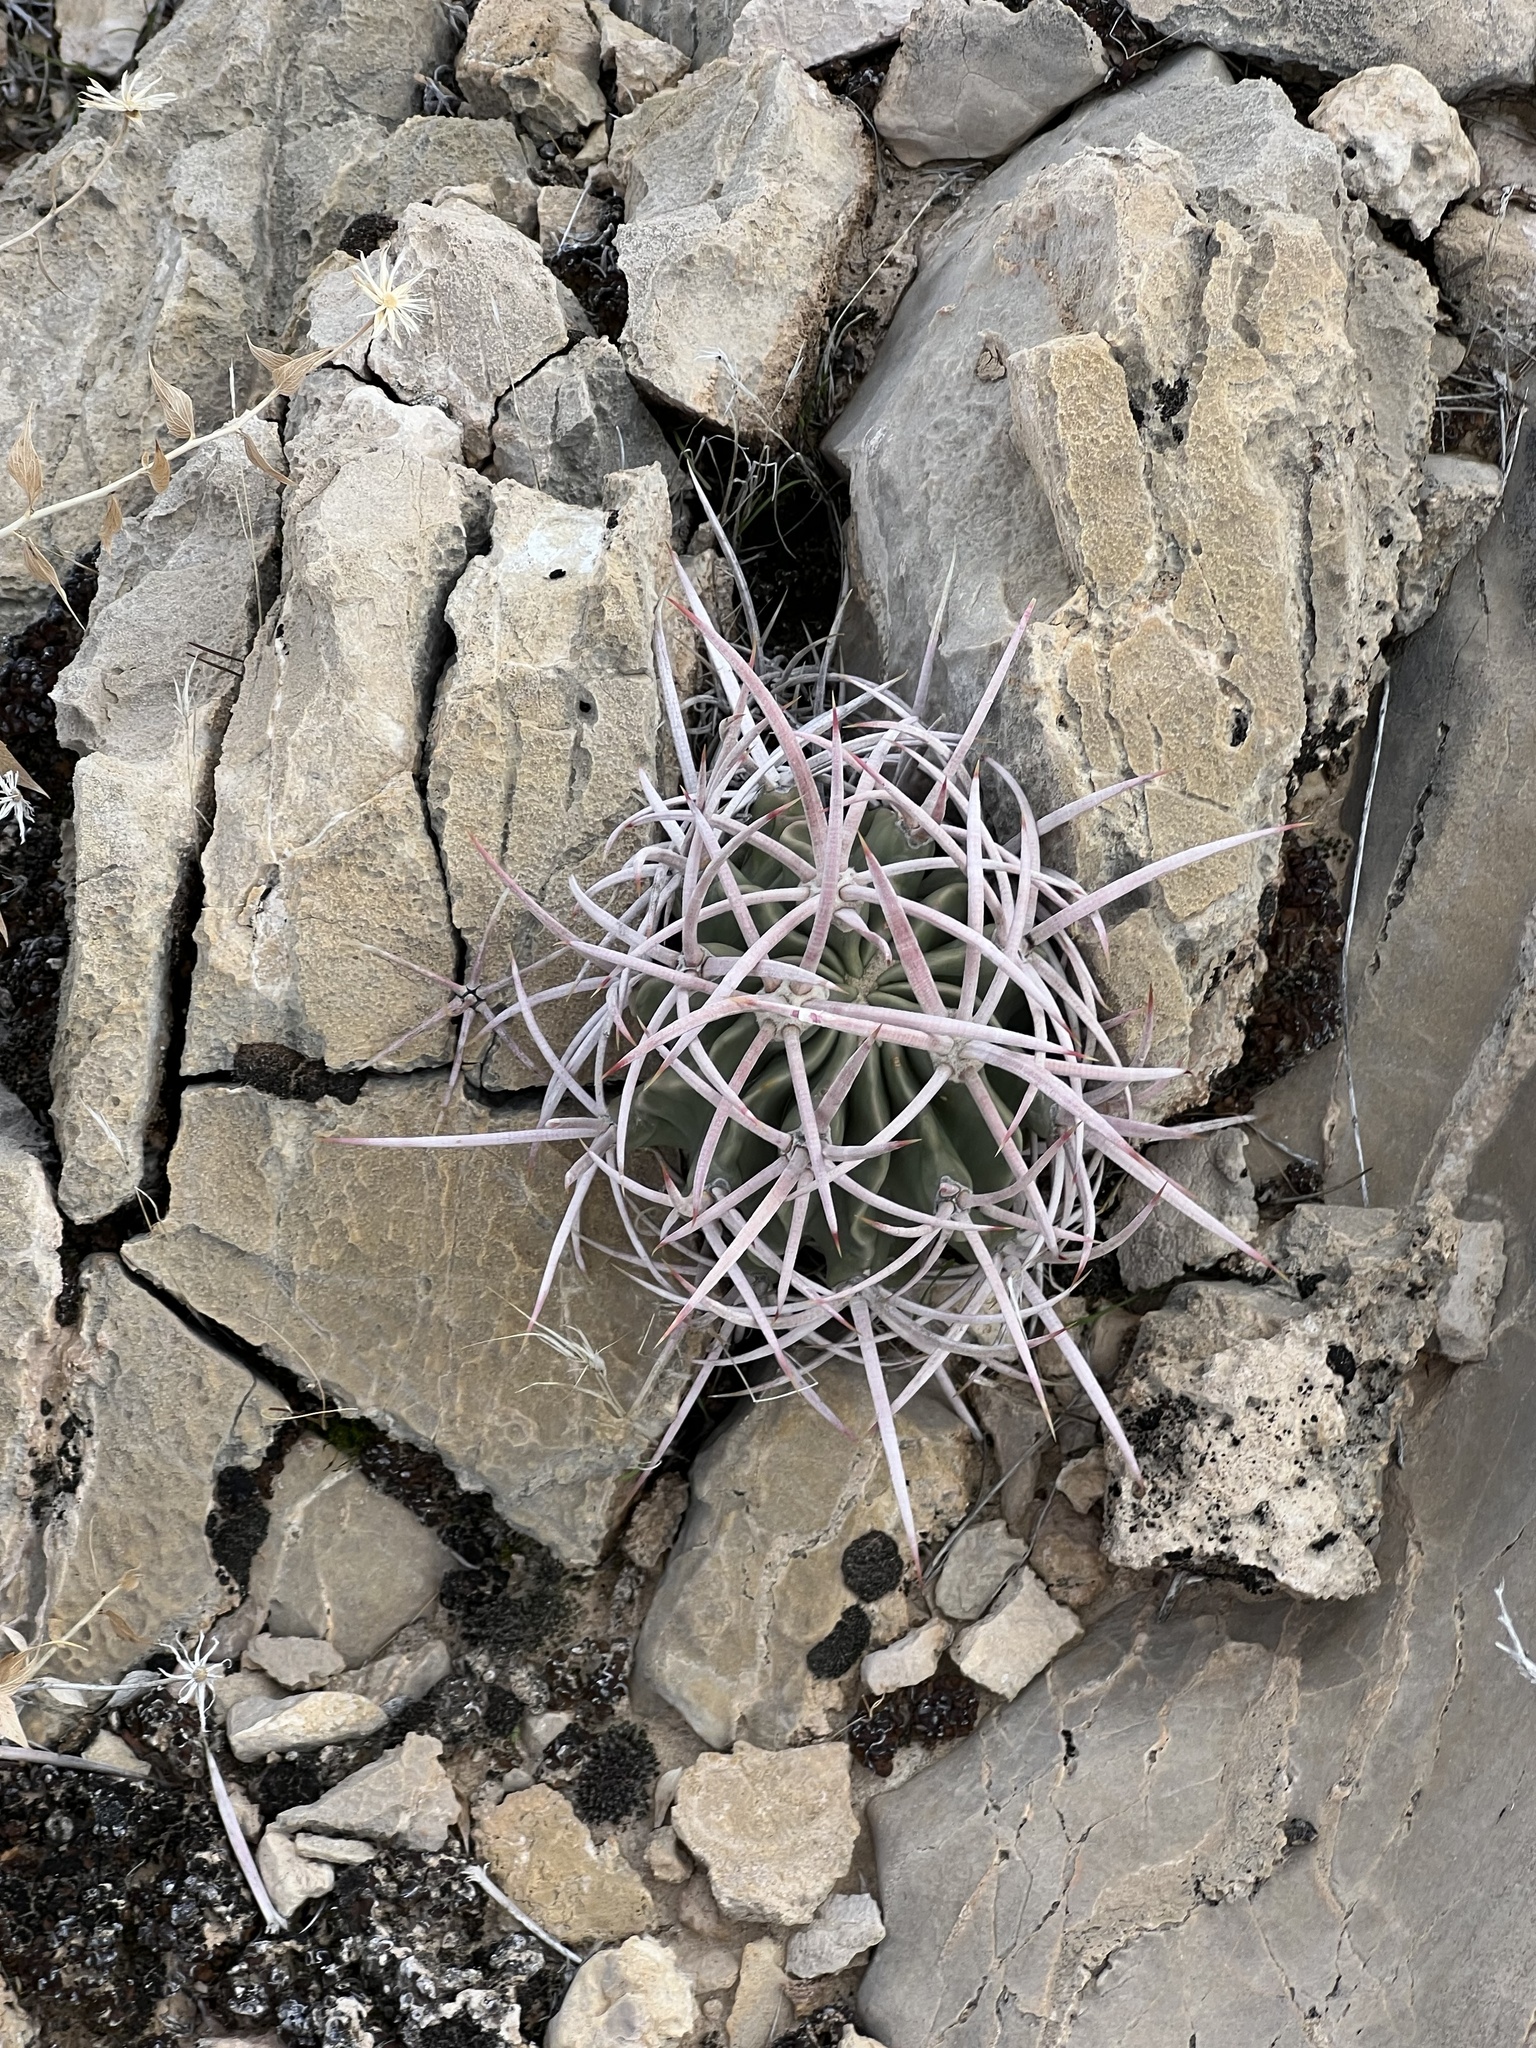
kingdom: Plantae
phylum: Tracheophyta
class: Magnoliopsida
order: Caryophyllales
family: Cactaceae
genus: Echinocactus
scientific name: Echinocactus polycephalus
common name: Cottontop cactus
